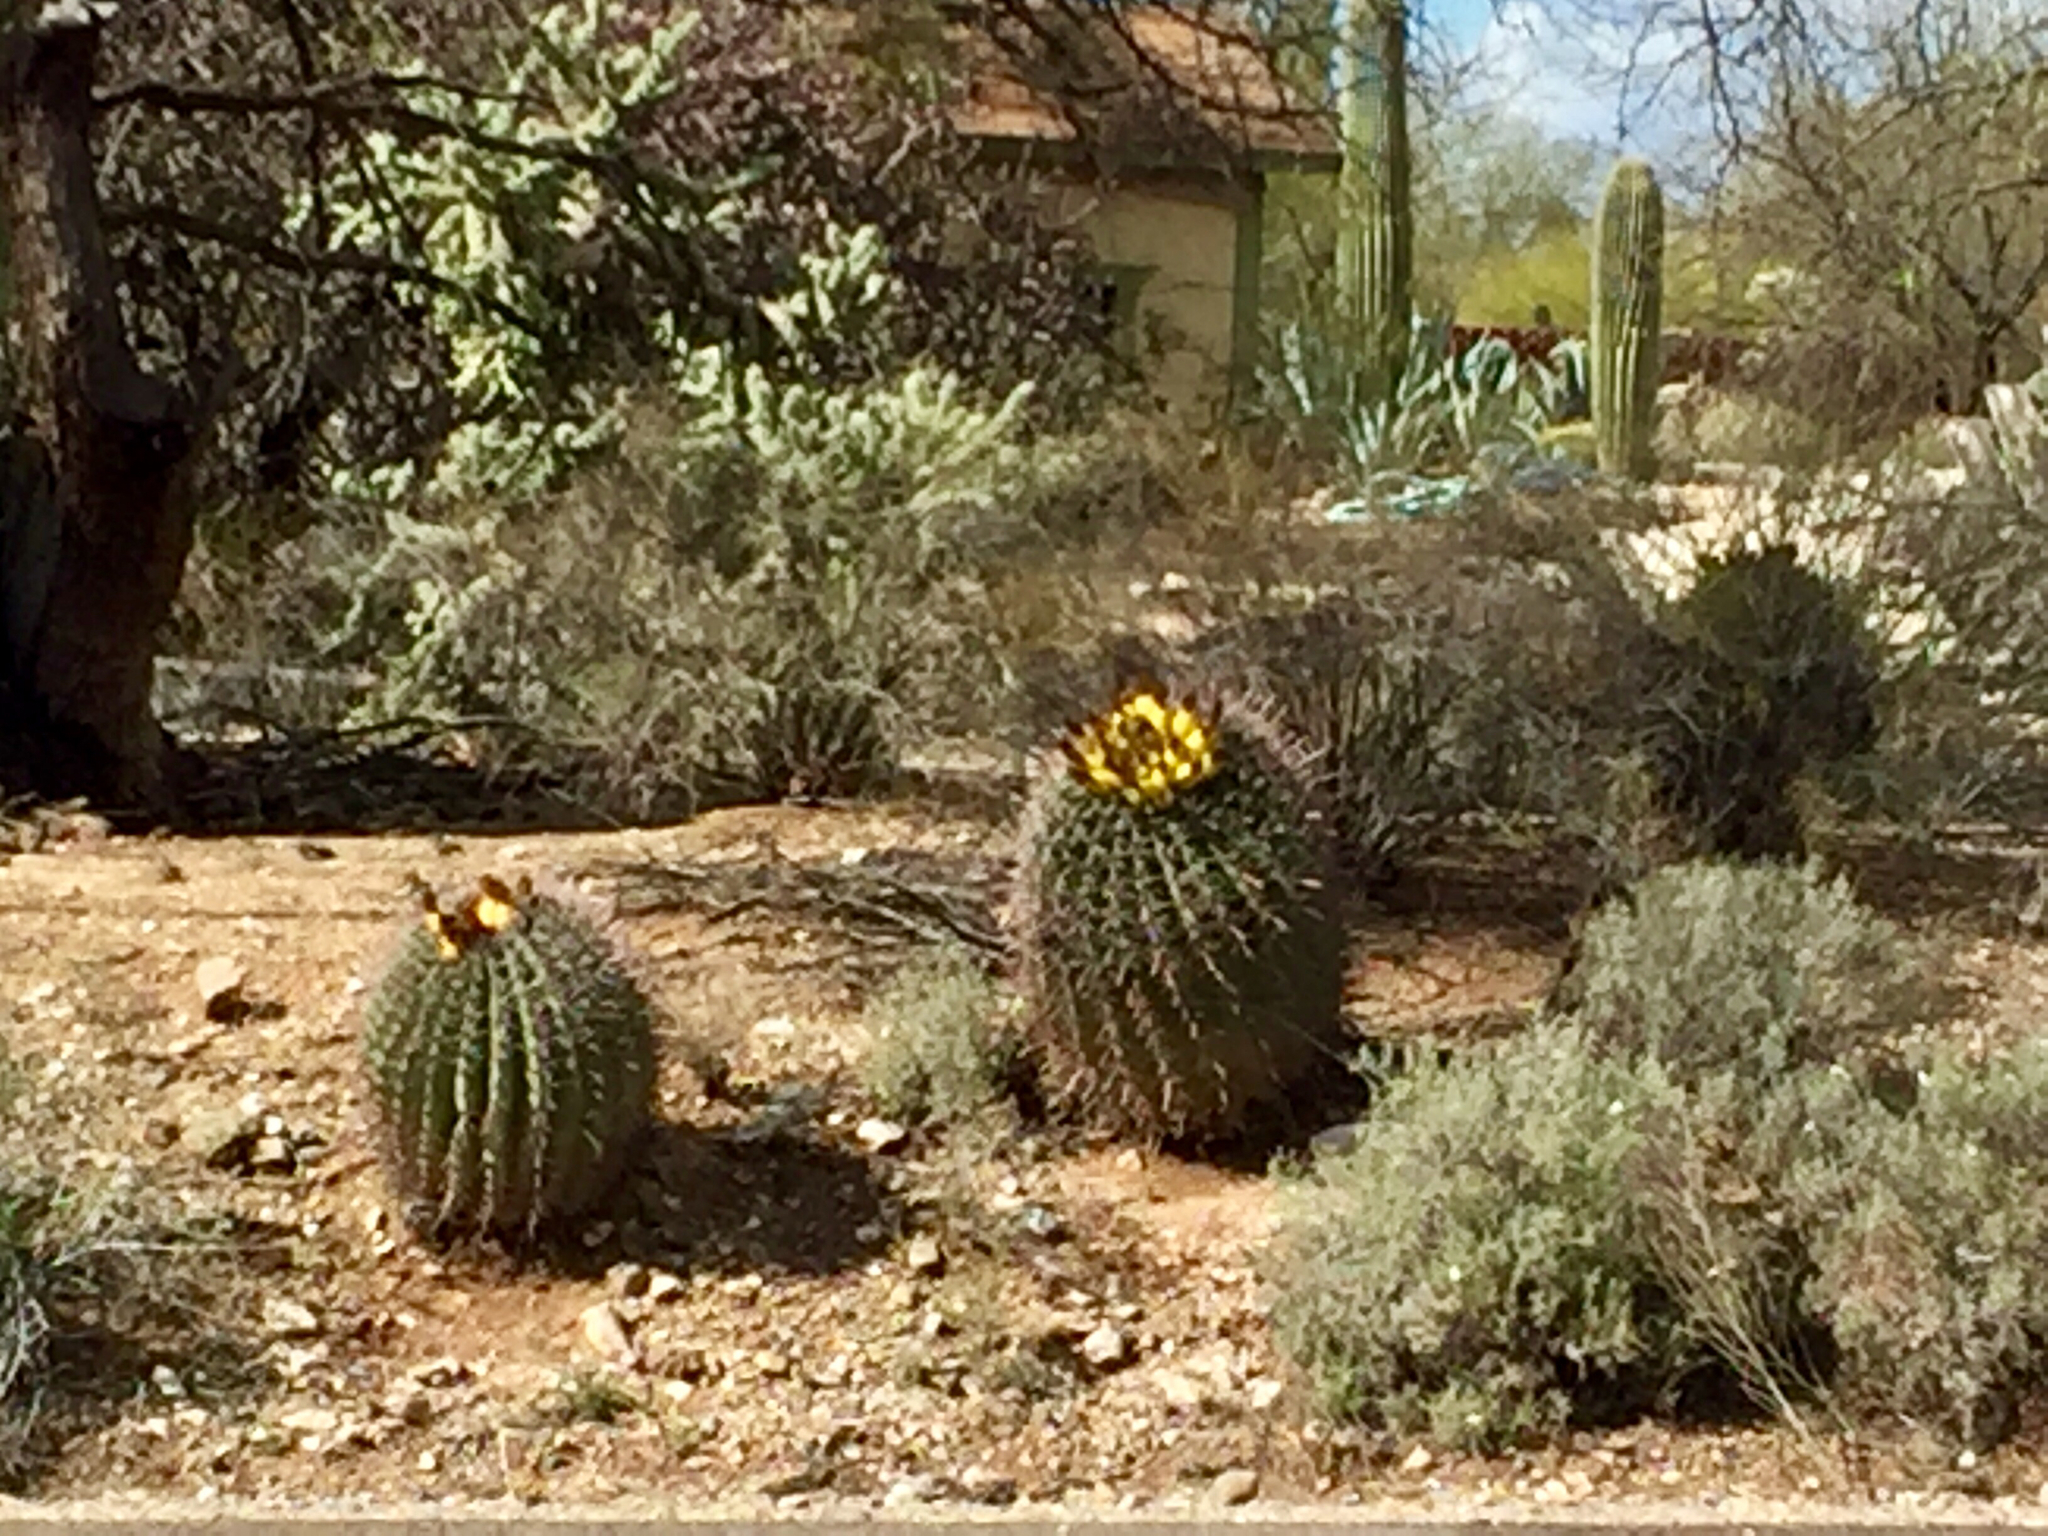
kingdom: Plantae
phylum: Tracheophyta
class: Magnoliopsida
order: Caryophyllales
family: Cactaceae
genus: Ferocactus
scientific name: Ferocactus wislizeni
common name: Candy barrel cactus
